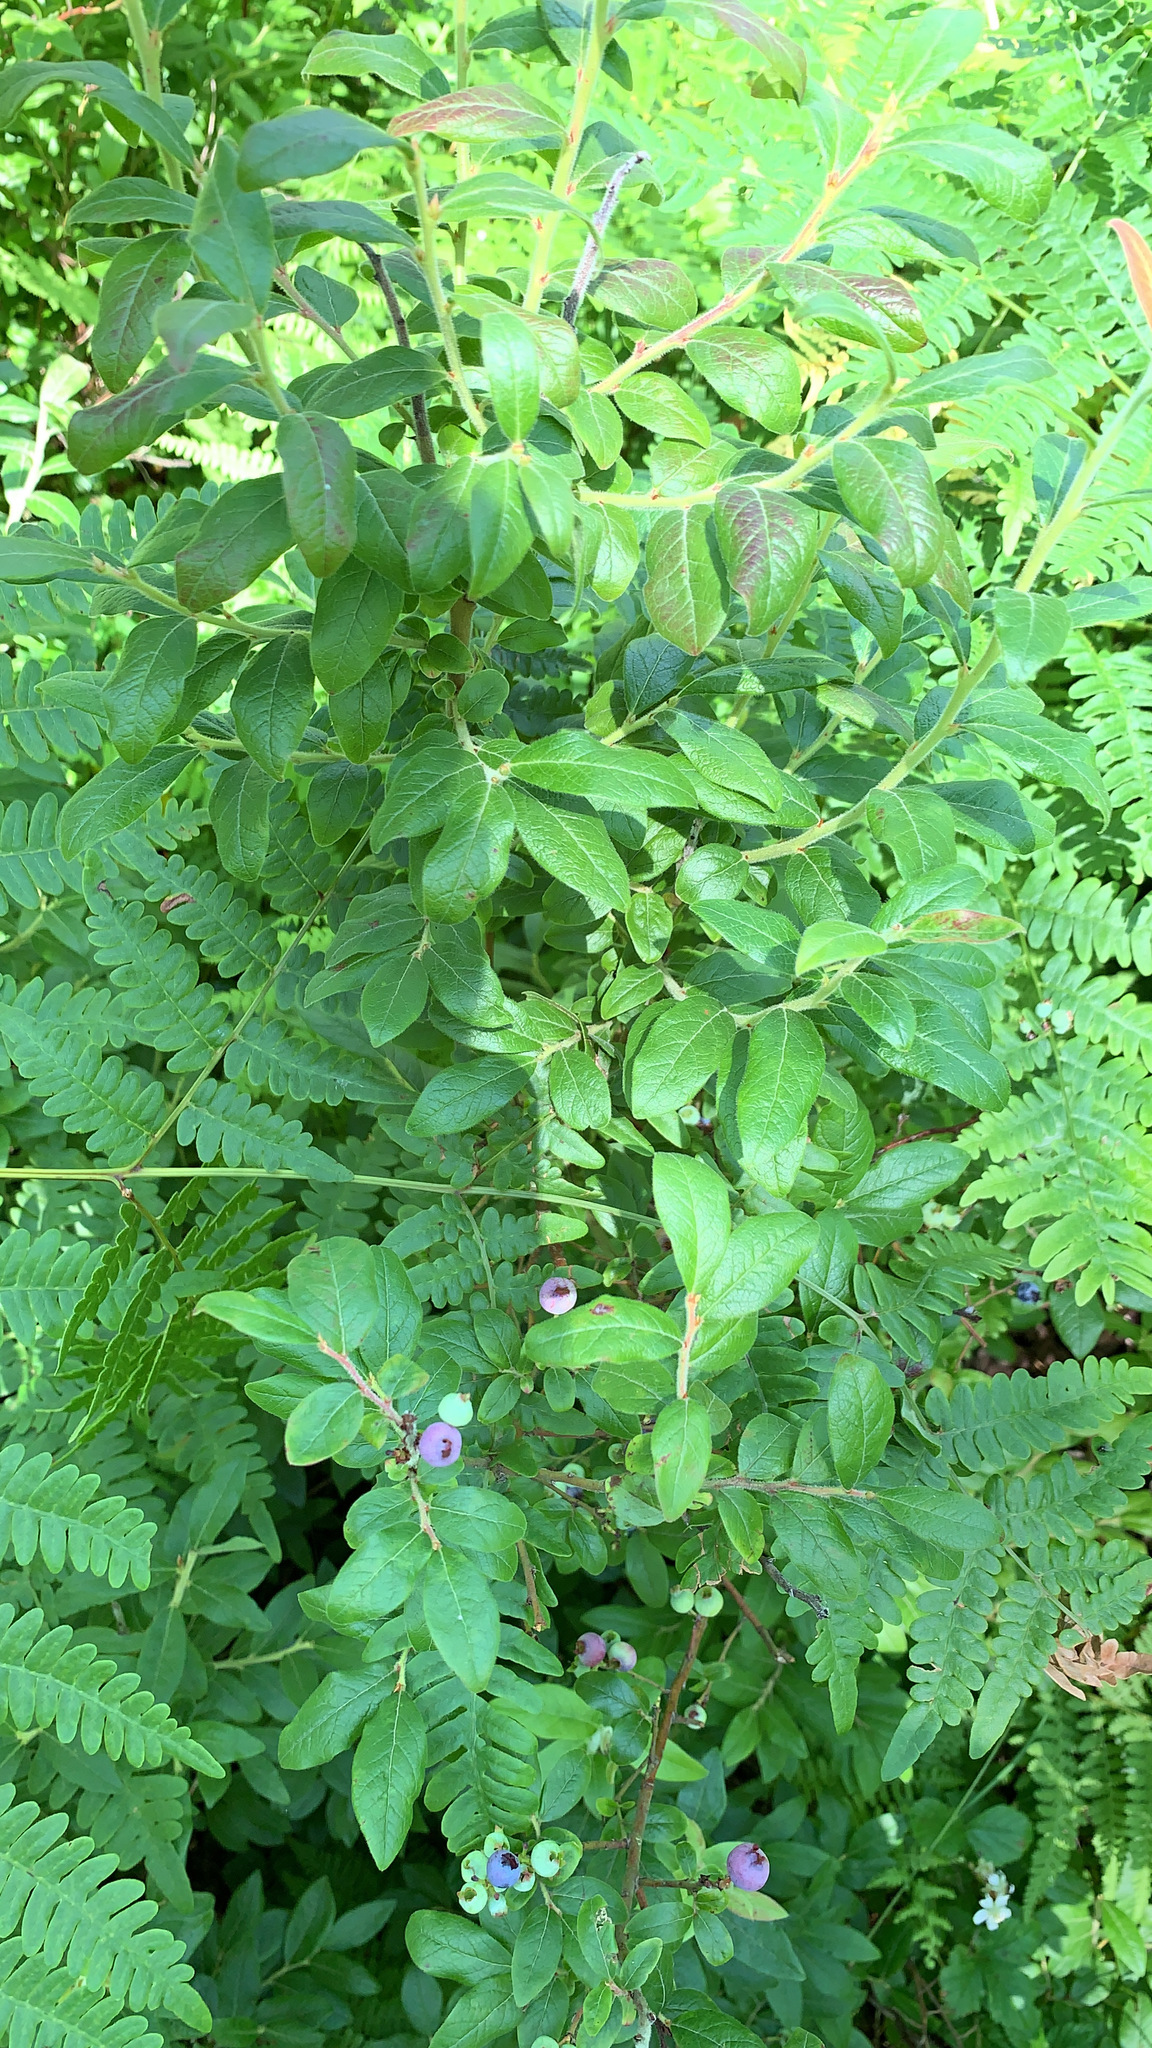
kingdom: Plantae
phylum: Tracheophyta
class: Magnoliopsida
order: Ericales
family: Ericaceae
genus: Vaccinium
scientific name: Vaccinium myrtilloides
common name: Canada blueberry
